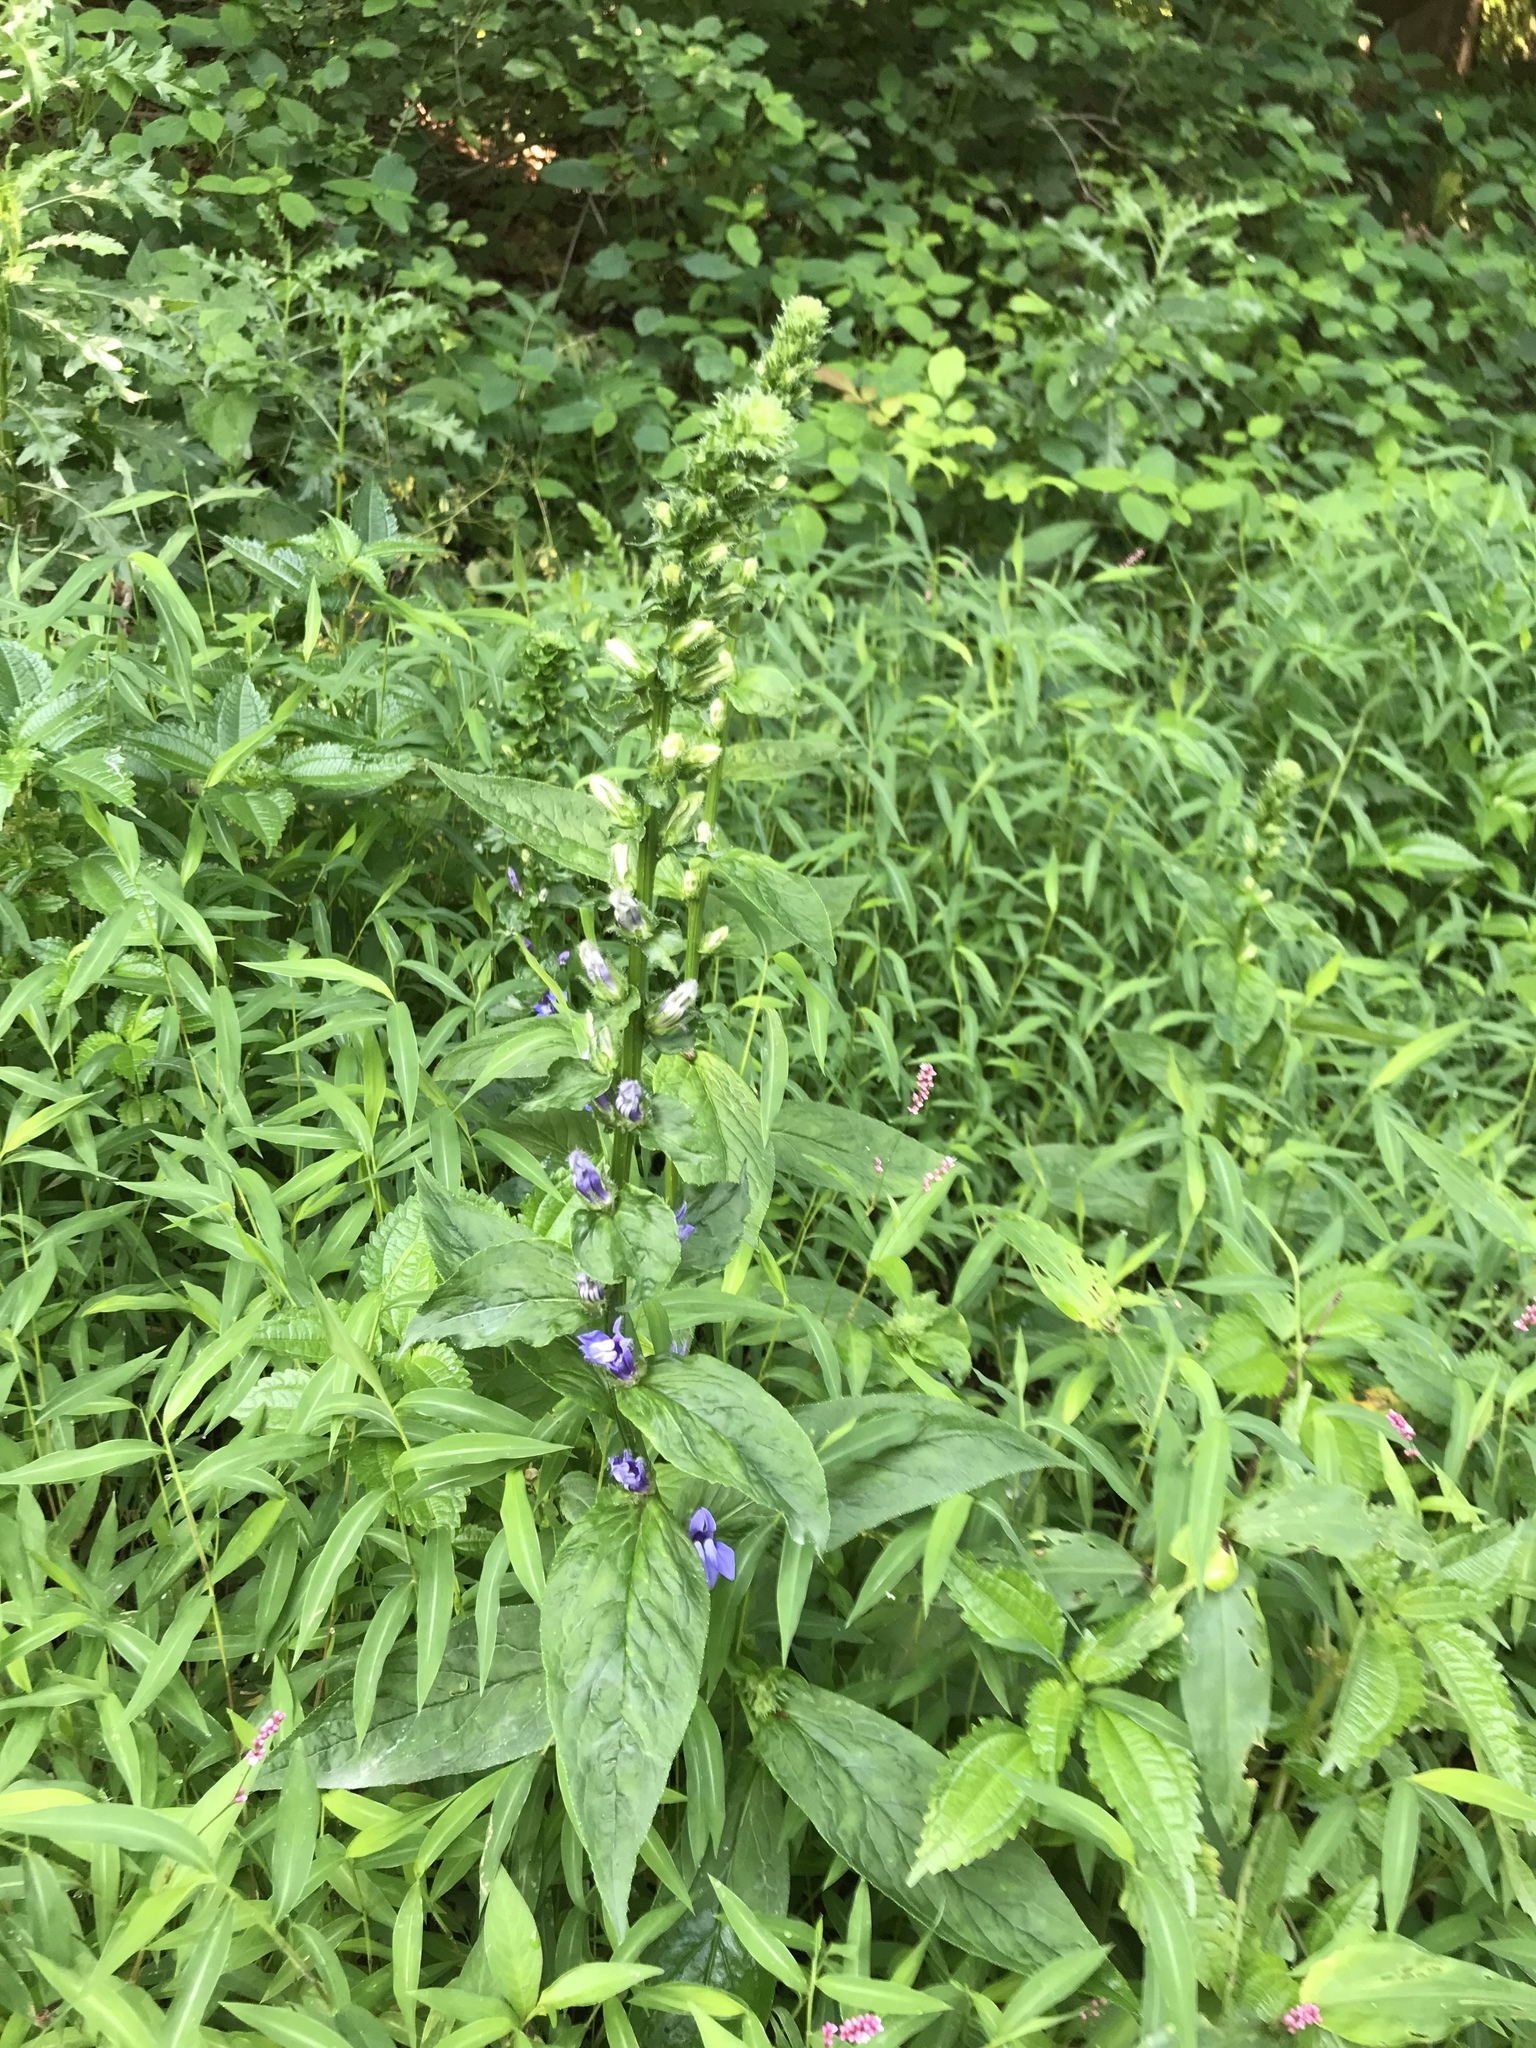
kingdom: Plantae
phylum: Tracheophyta
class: Magnoliopsida
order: Asterales
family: Campanulaceae
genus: Lobelia
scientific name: Lobelia siphilitica
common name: Great lobelia
